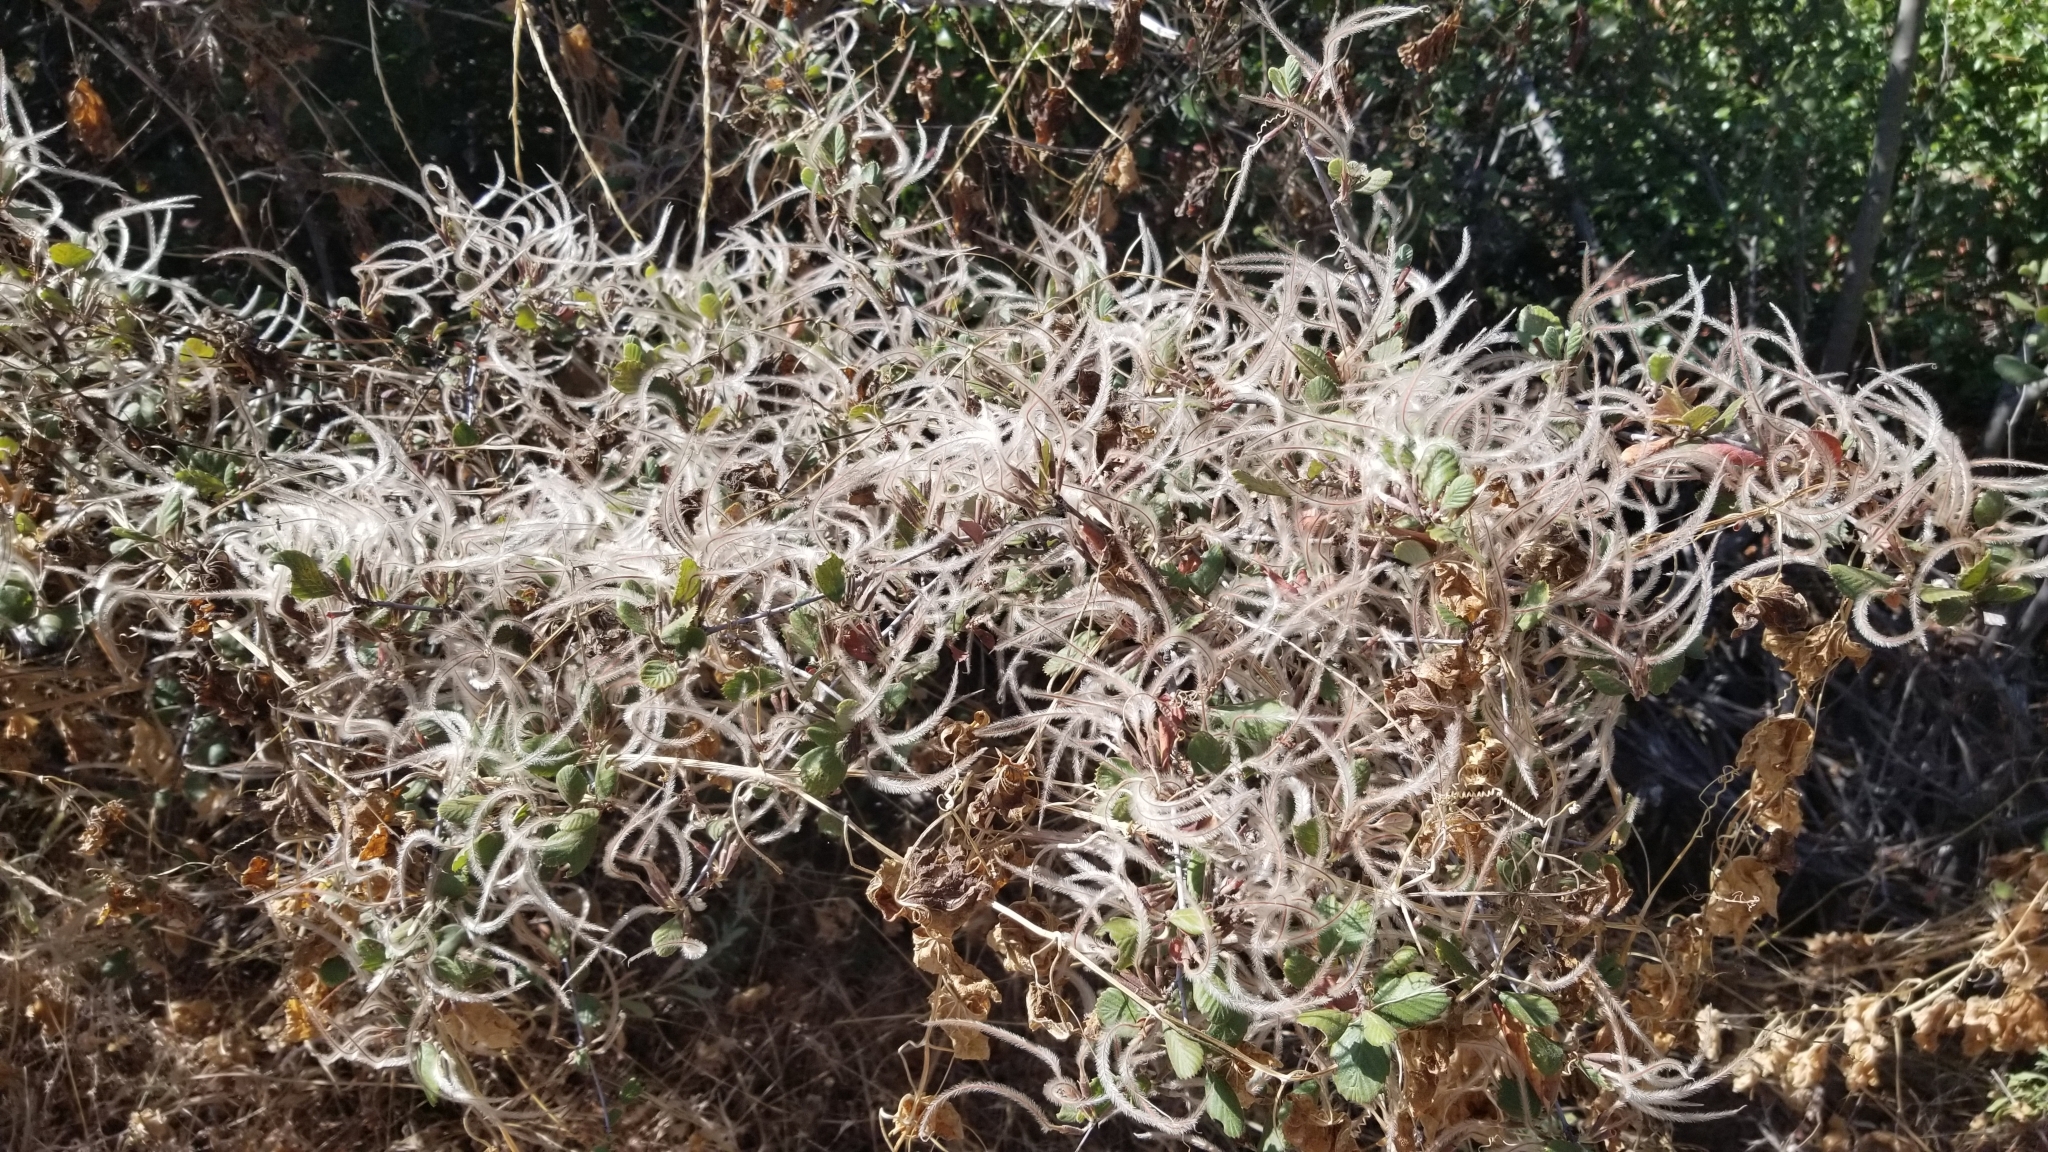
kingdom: Plantae
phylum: Tracheophyta
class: Magnoliopsida
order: Rosales
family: Rosaceae
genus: Cercocarpus
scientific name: Cercocarpus betuloides
